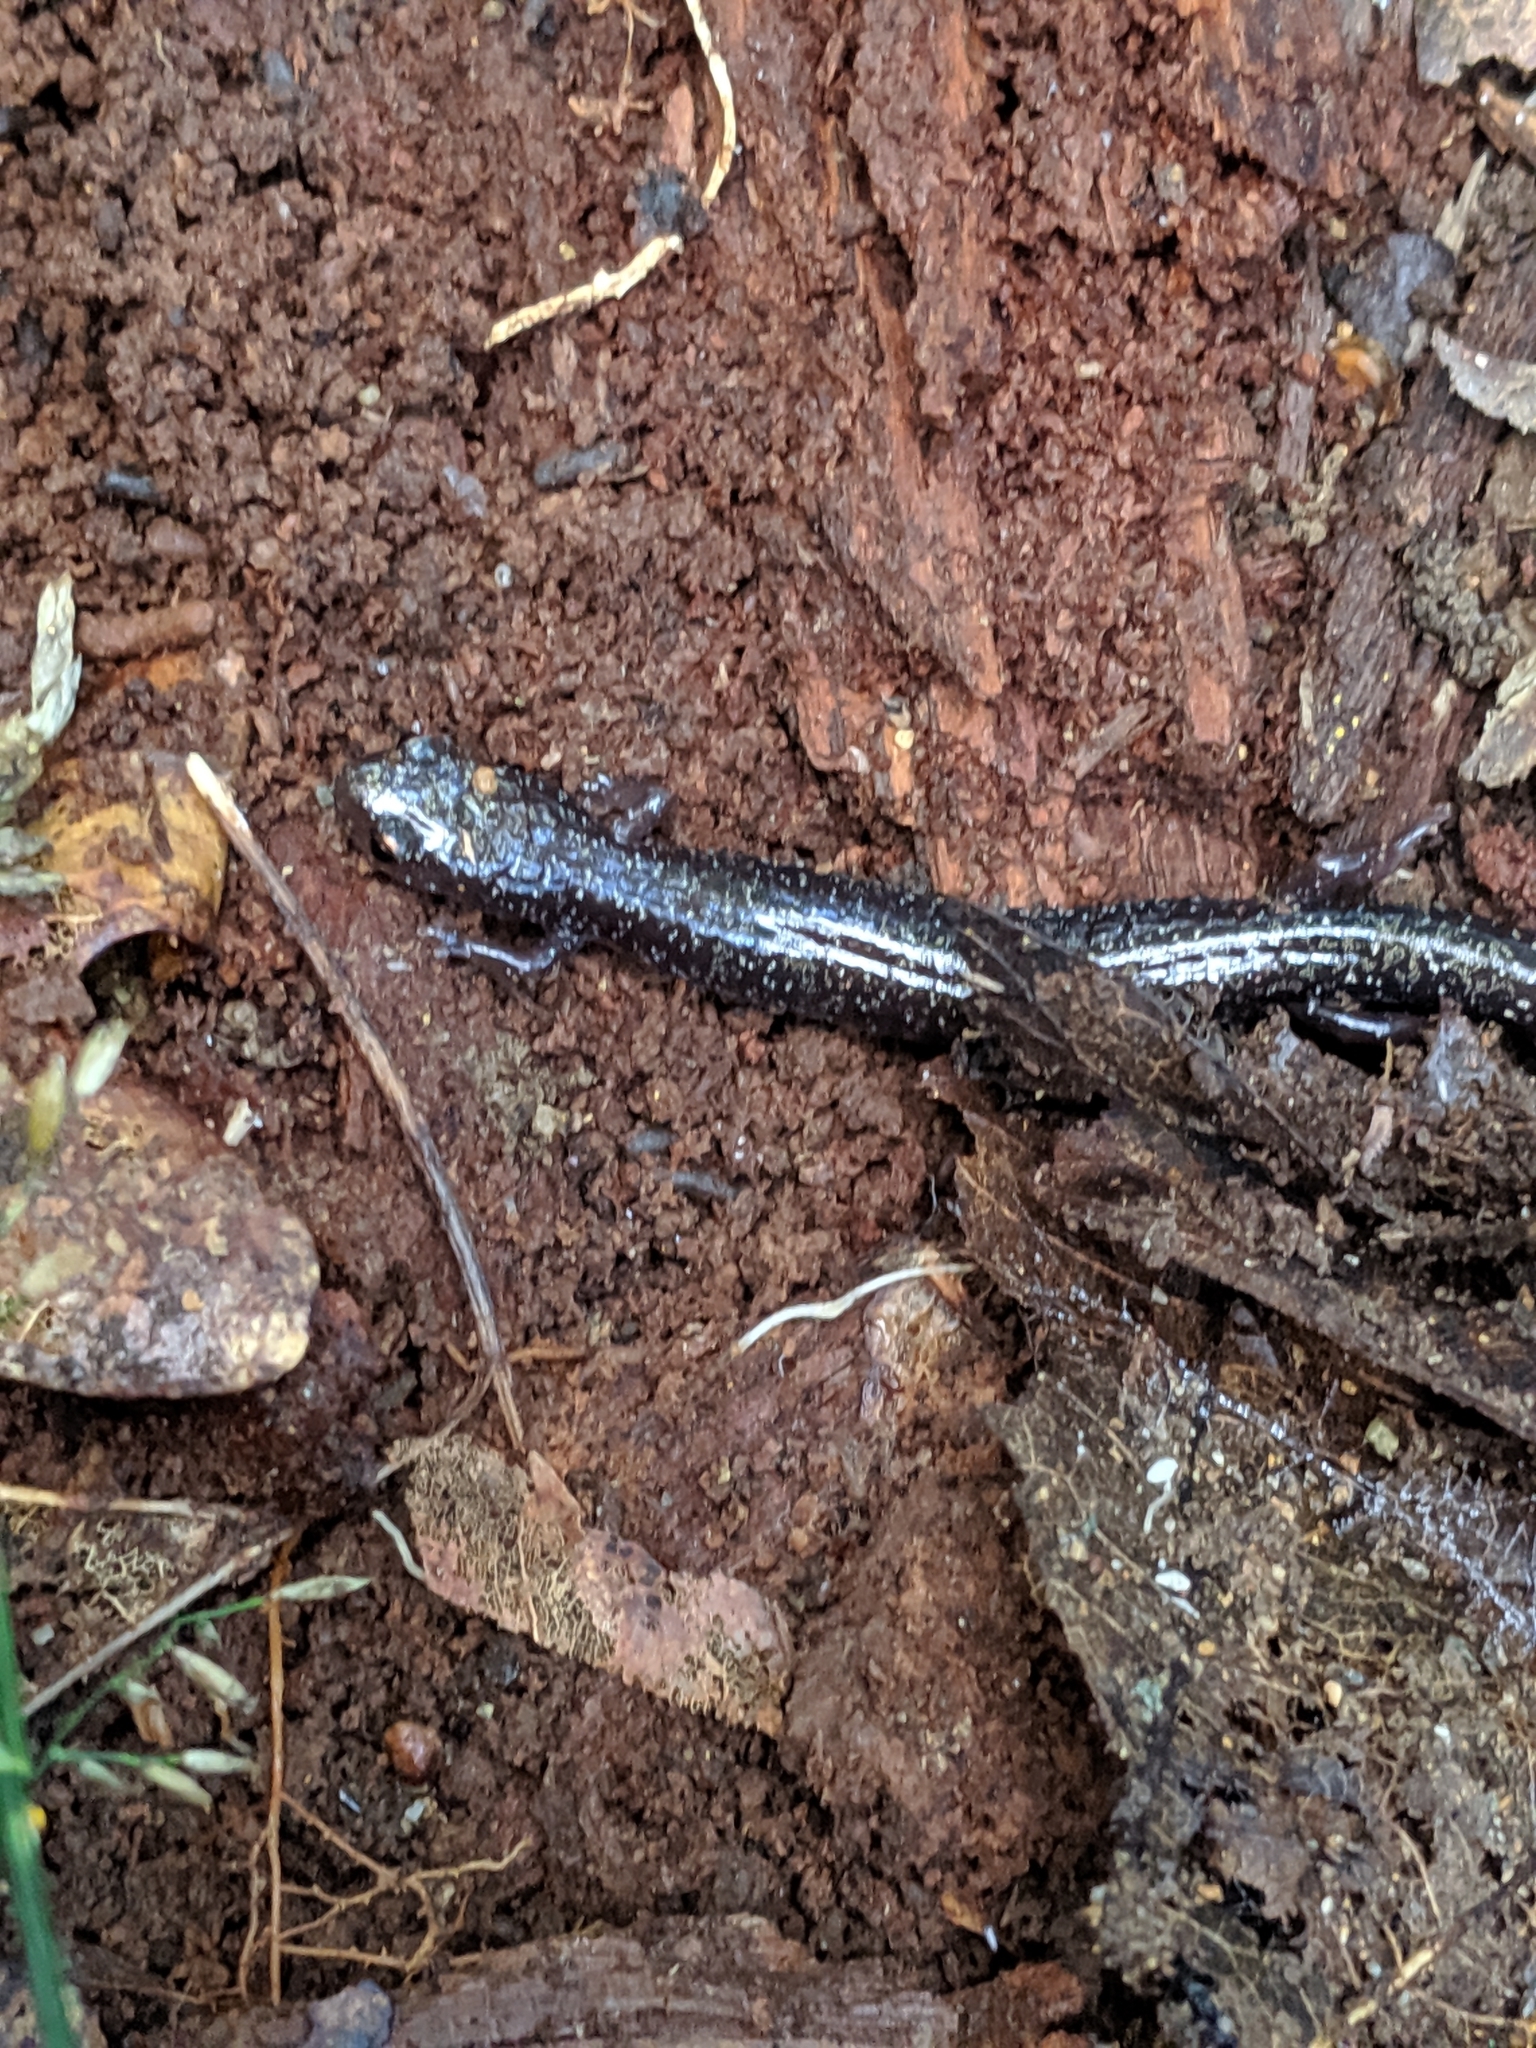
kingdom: Animalia
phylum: Chordata
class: Amphibia
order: Caudata
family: Plethodontidae
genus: Plethodon
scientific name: Plethodon cinereus
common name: Redback salamander
